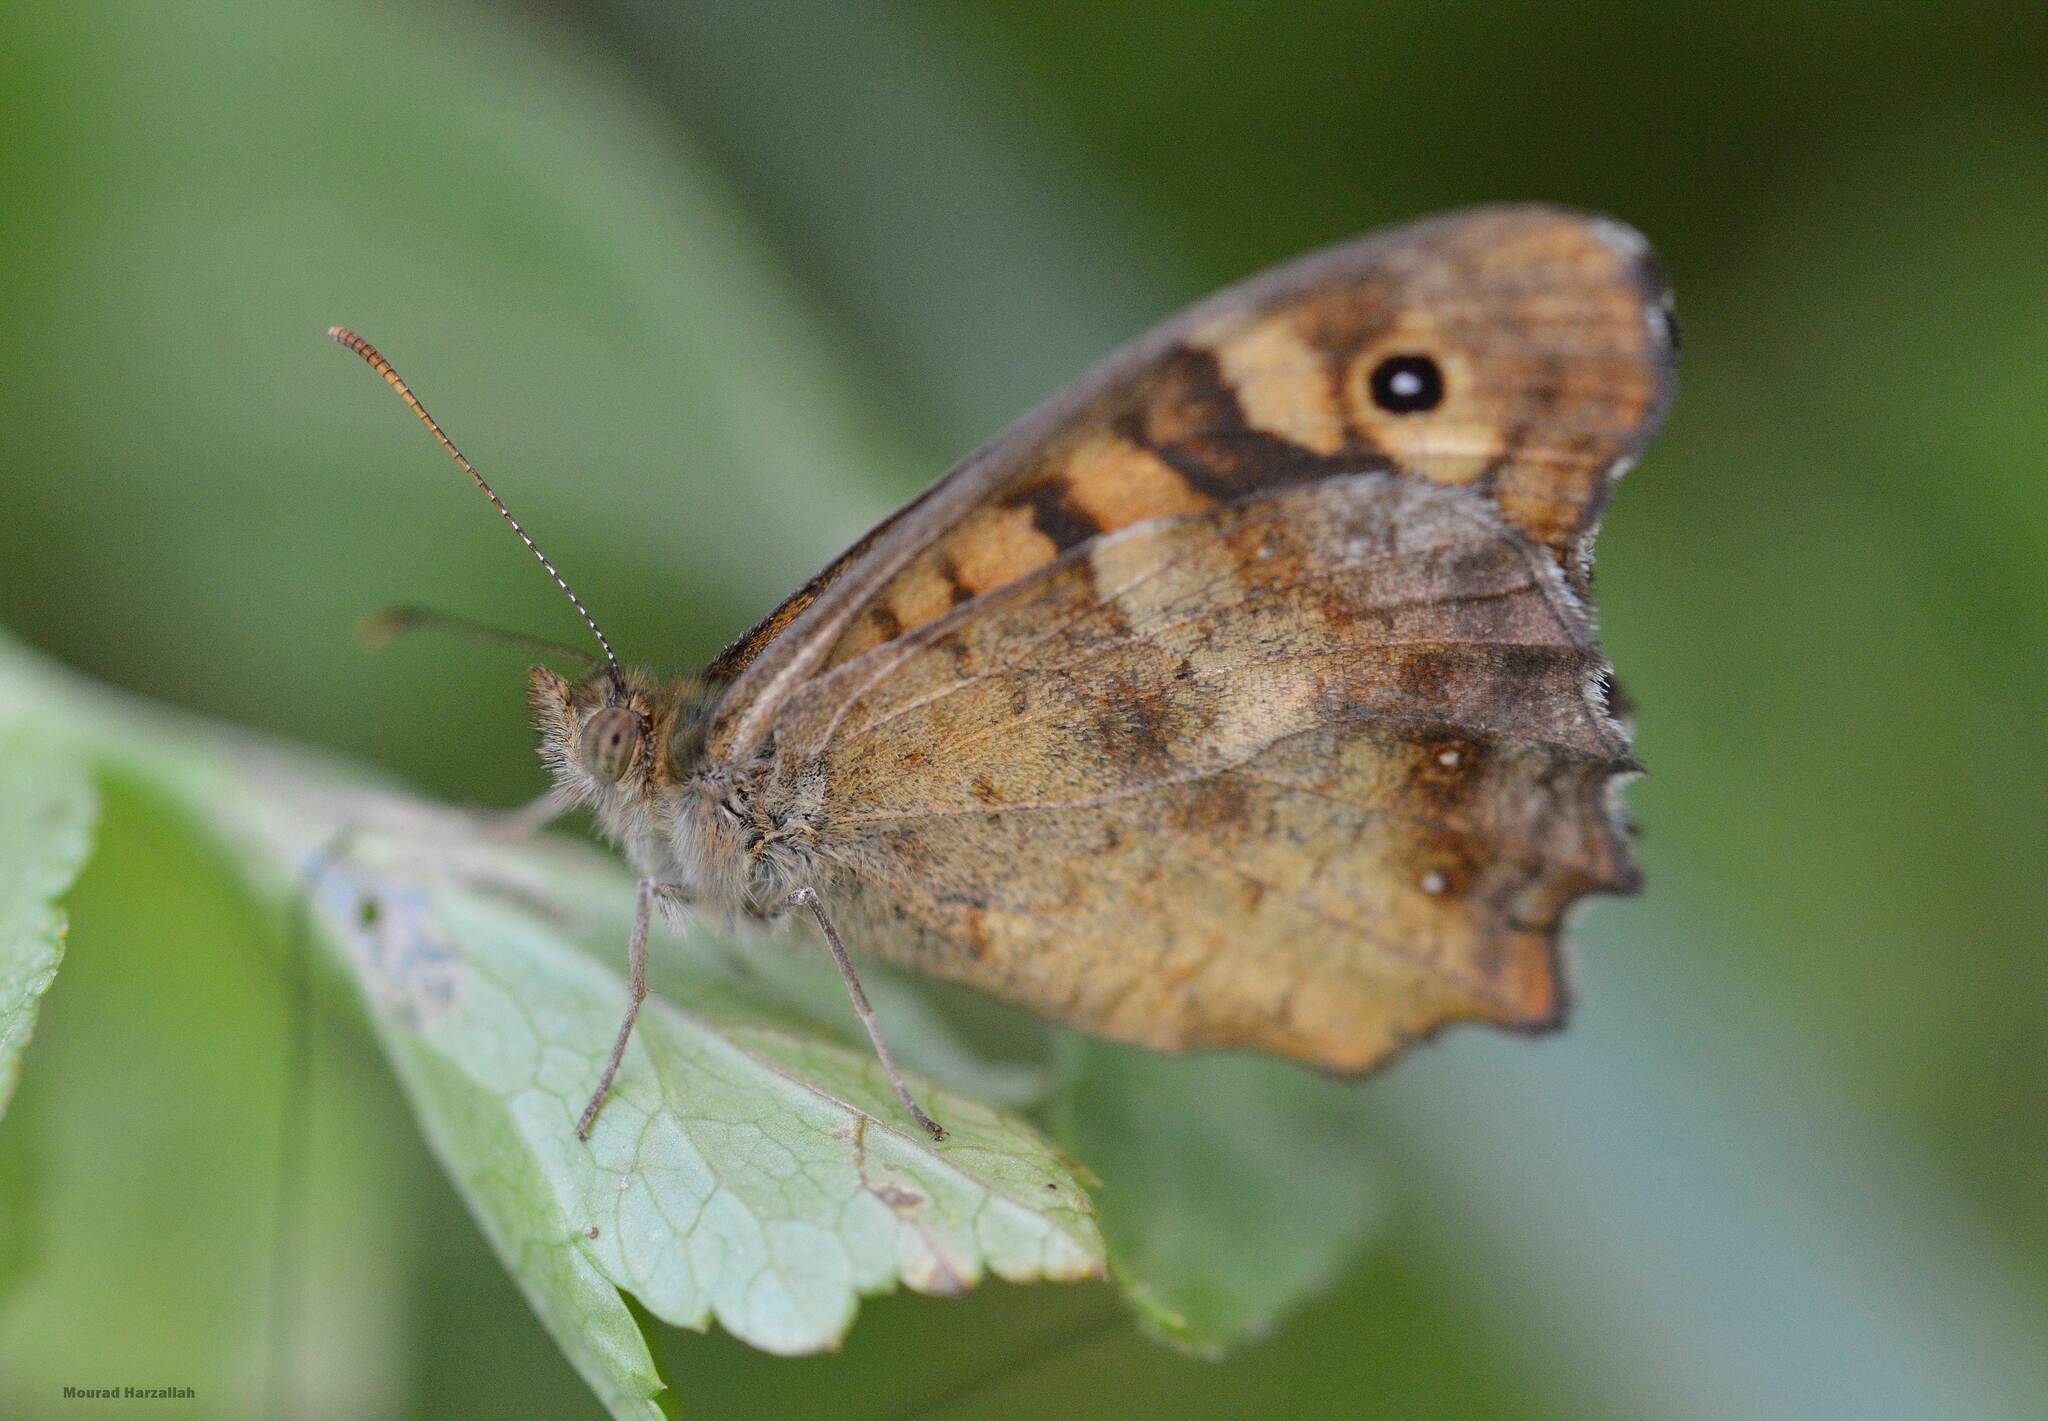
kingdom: Animalia
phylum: Arthropoda
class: Insecta
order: Lepidoptera
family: Nymphalidae
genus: Pararge
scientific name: Pararge aegeria
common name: Speckled wood
